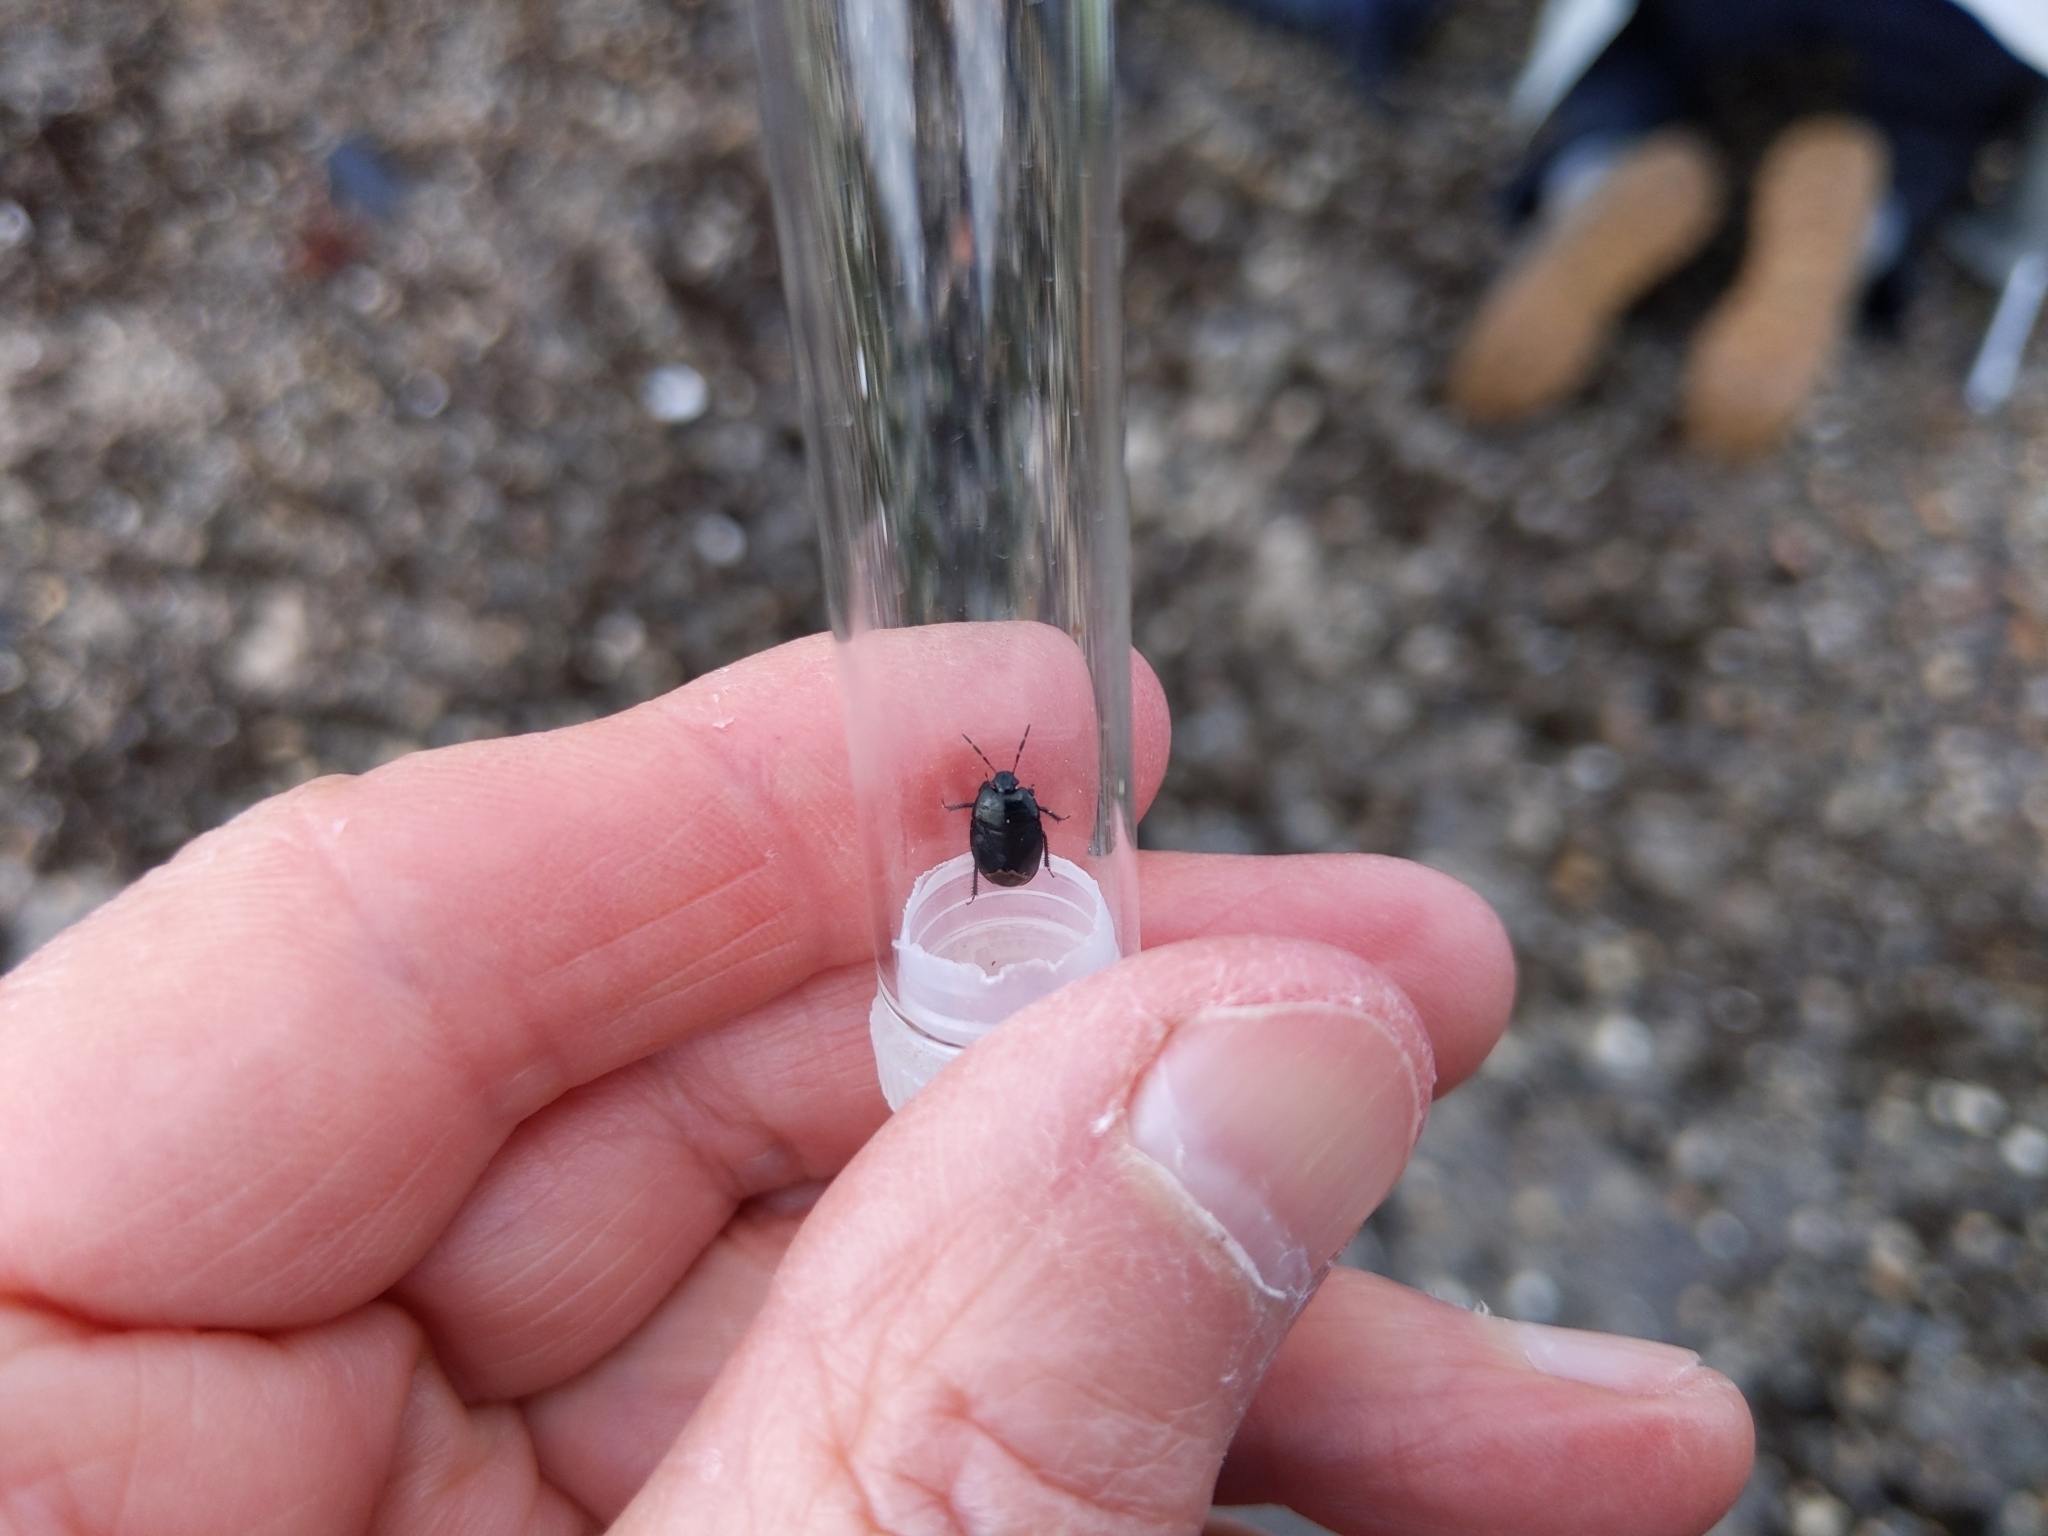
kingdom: Animalia
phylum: Arthropoda
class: Insecta
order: Hemiptera
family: Cydnidae
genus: Sehirus
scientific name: Sehirus luctuosus
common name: Forget-me-not shieldbug
